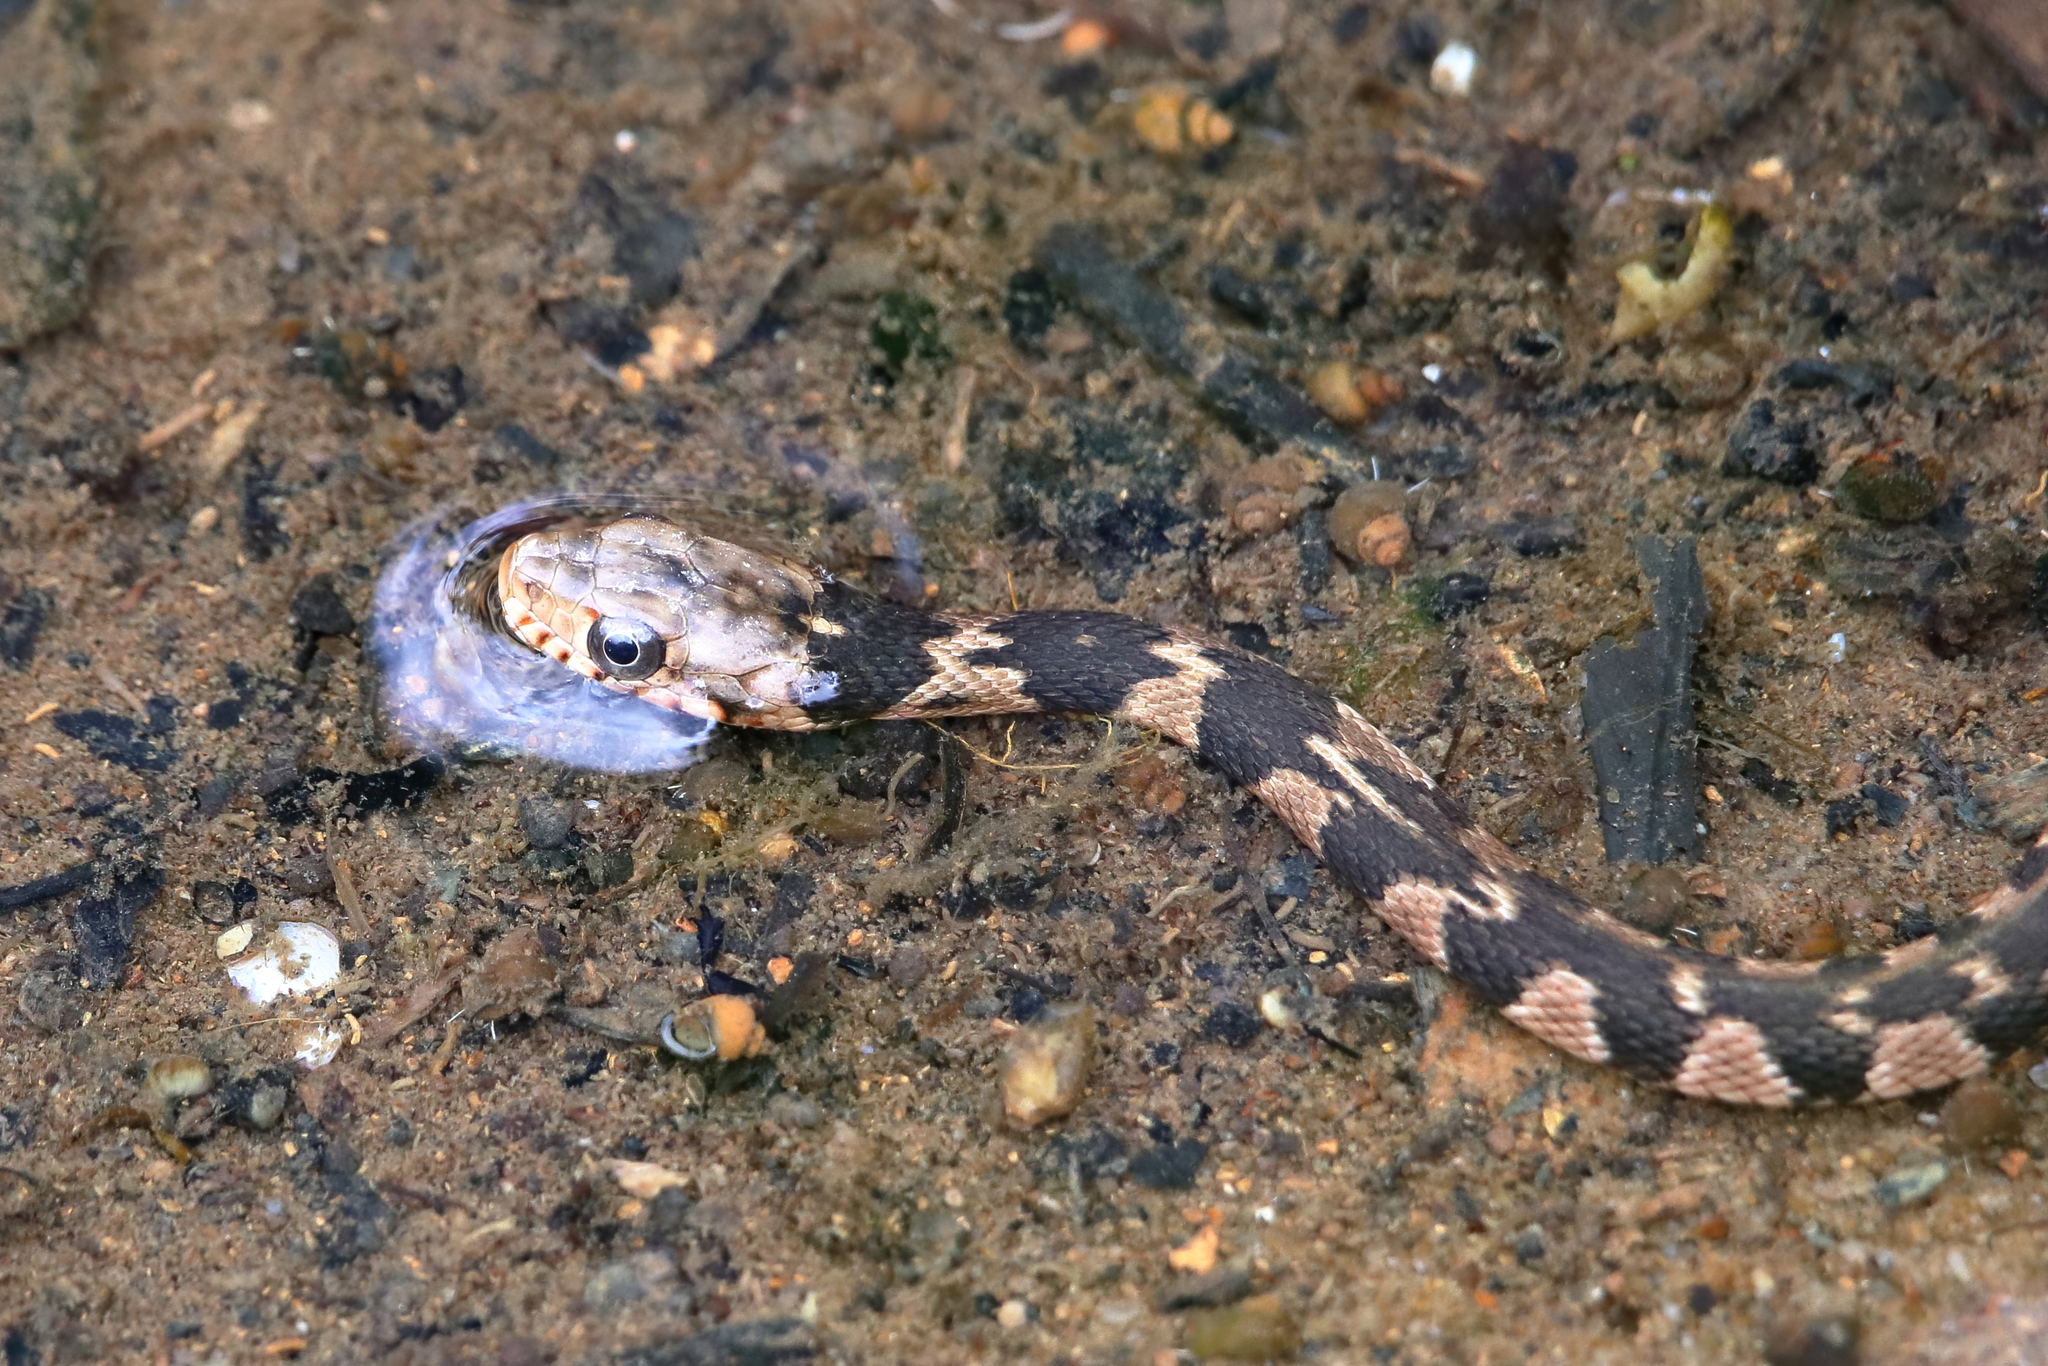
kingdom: Animalia
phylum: Chordata
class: Squamata
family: Colubridae
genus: Nerodia
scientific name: Nerodia erythrogaster
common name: Plainbelly water snake
